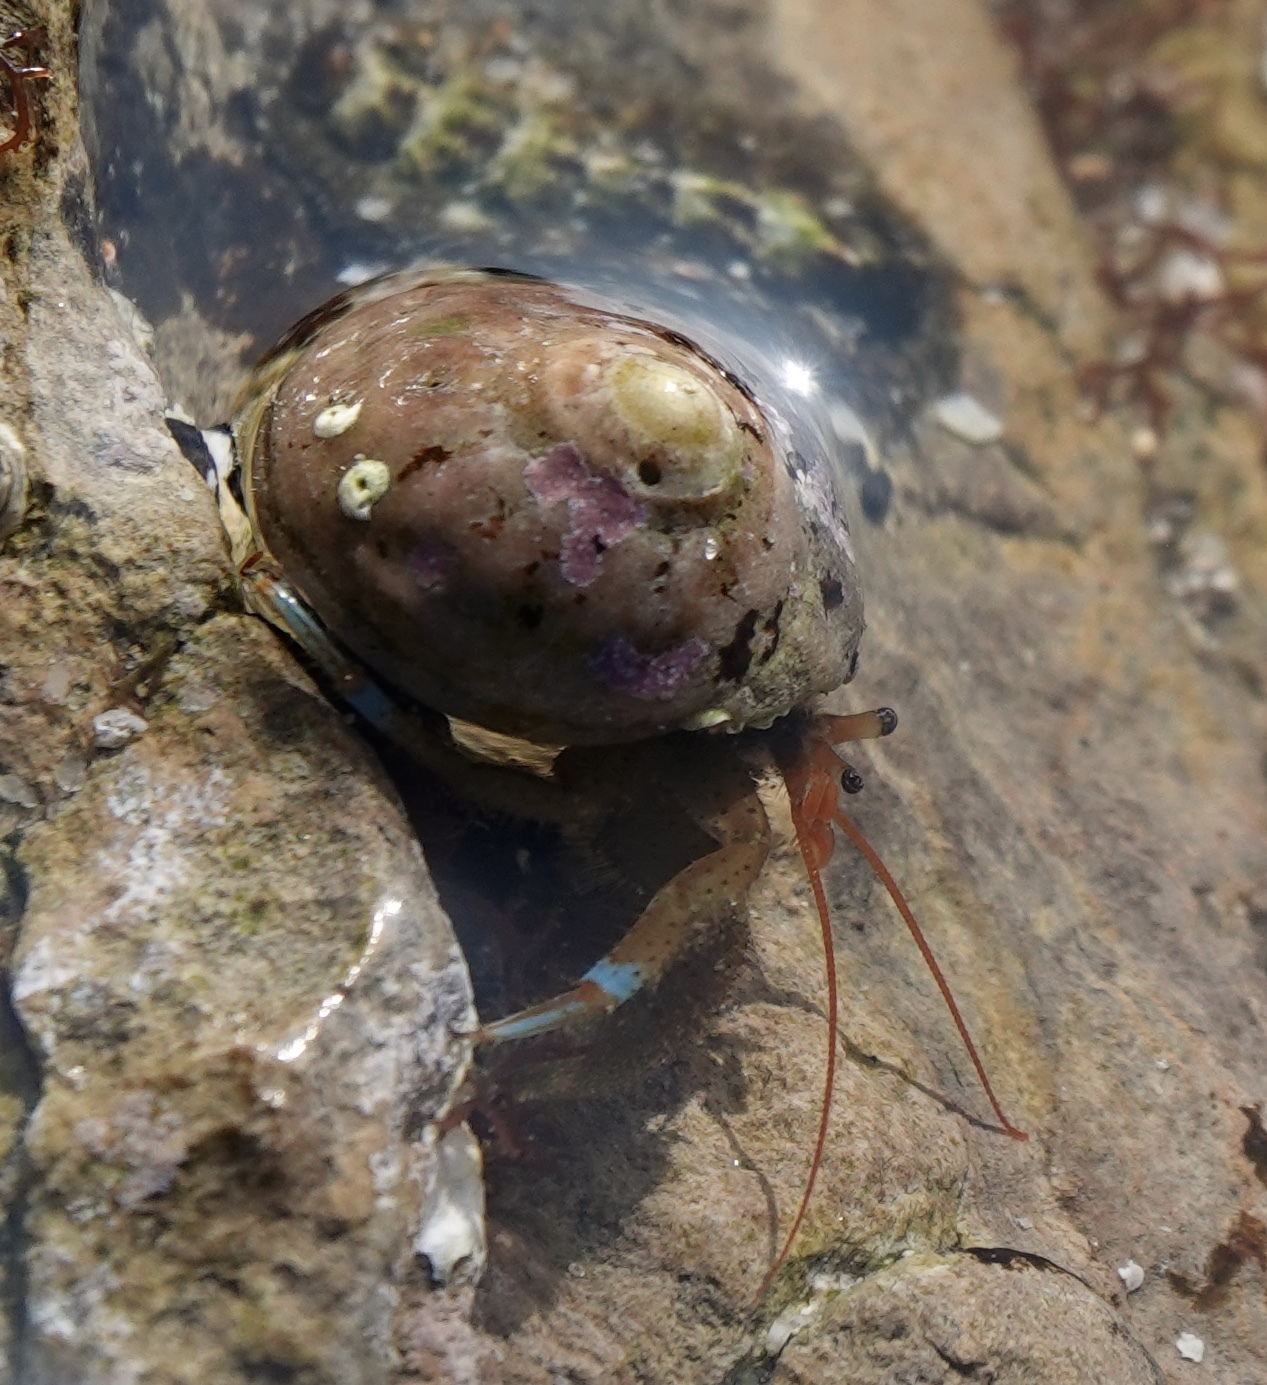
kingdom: Animalia
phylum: Arthropoda
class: Malacostraca
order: Decapoda
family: Paguridae
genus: Pagurus
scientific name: Pagurus samuelis
